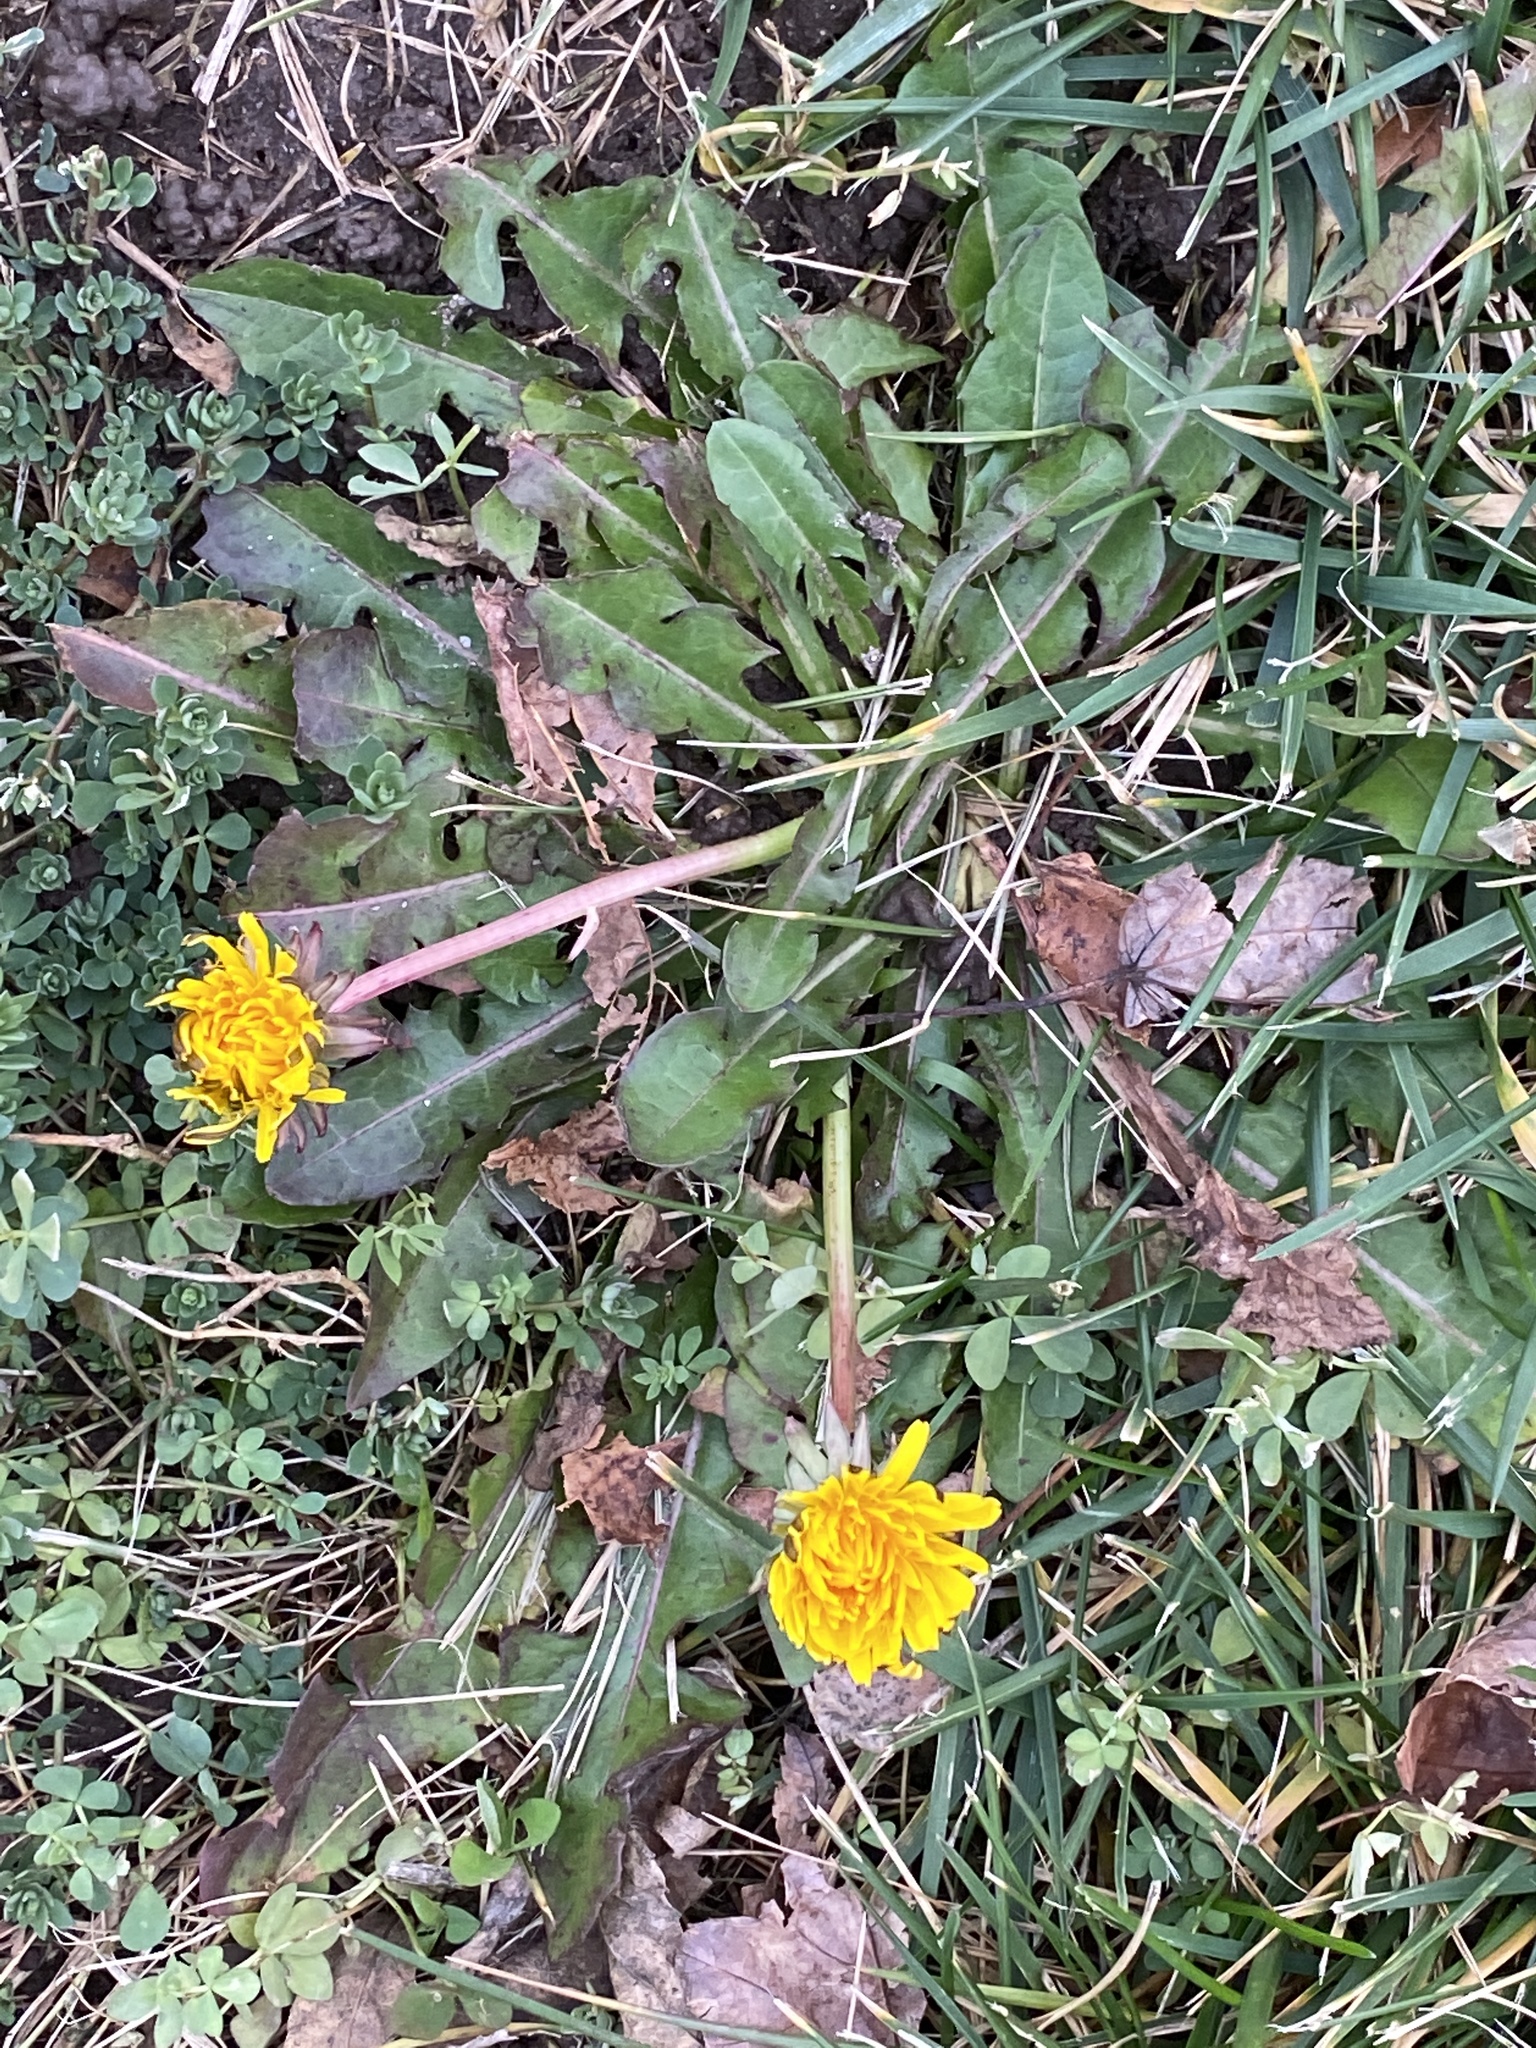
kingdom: Plantae
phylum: Tracheophyta
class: Magnoliopsida
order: Asterales
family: Asteraceae
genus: Taraxacum
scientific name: Taraxacum officinale
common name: Common dandelion
